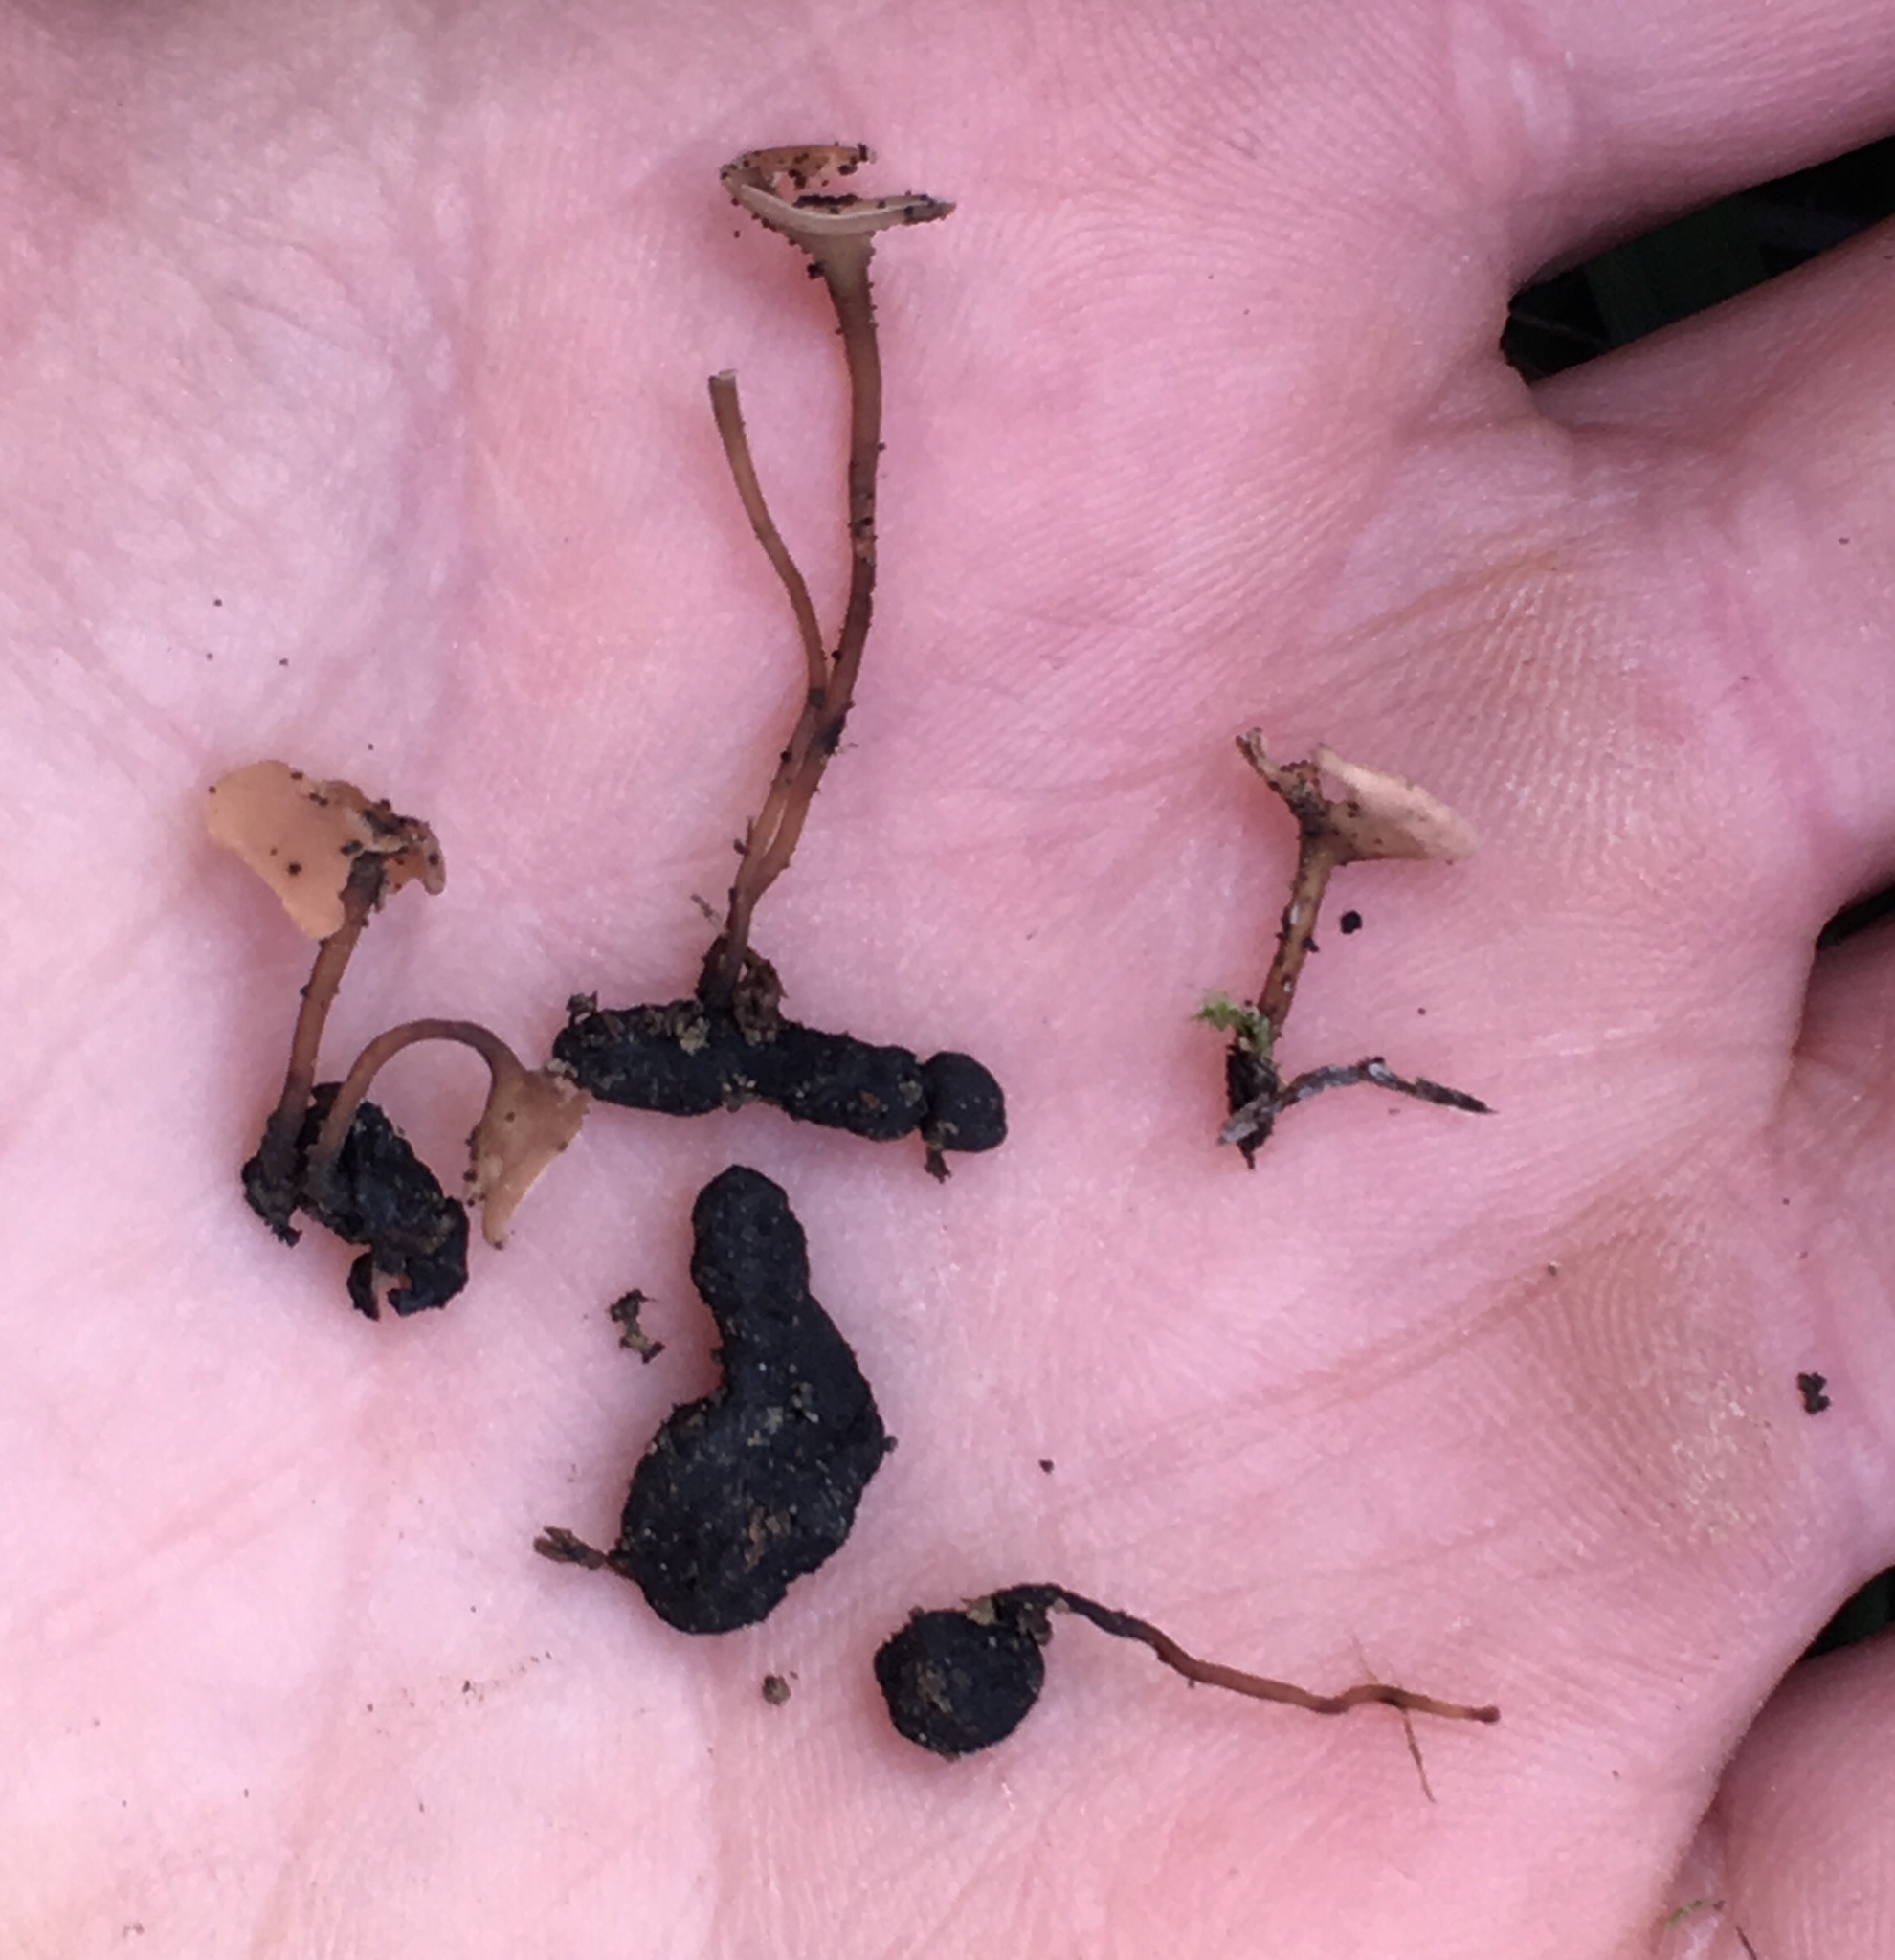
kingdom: Fungi
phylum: Ascomycota
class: Leotiomycetes
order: Helotiales
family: Sclerotiniaceae
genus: Sclerotinia
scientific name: Sclerotinia sclerotiorum
